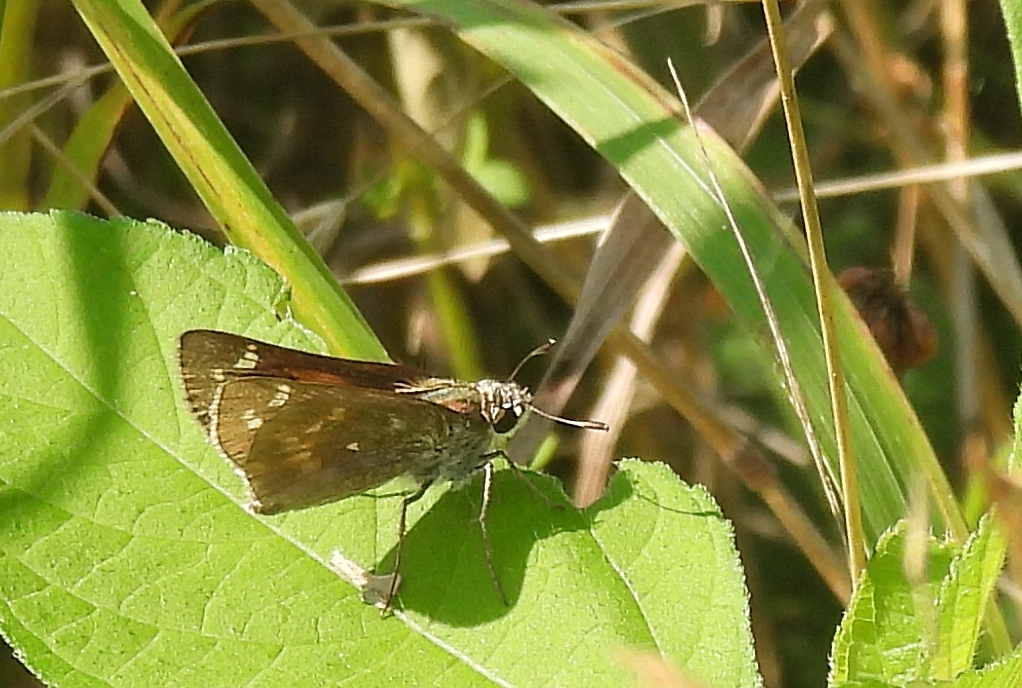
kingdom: Animalia
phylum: Arthropoda
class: Insecta
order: Lepidoptera
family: Hesperiidae
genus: Atalopedes
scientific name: Atalopedes
